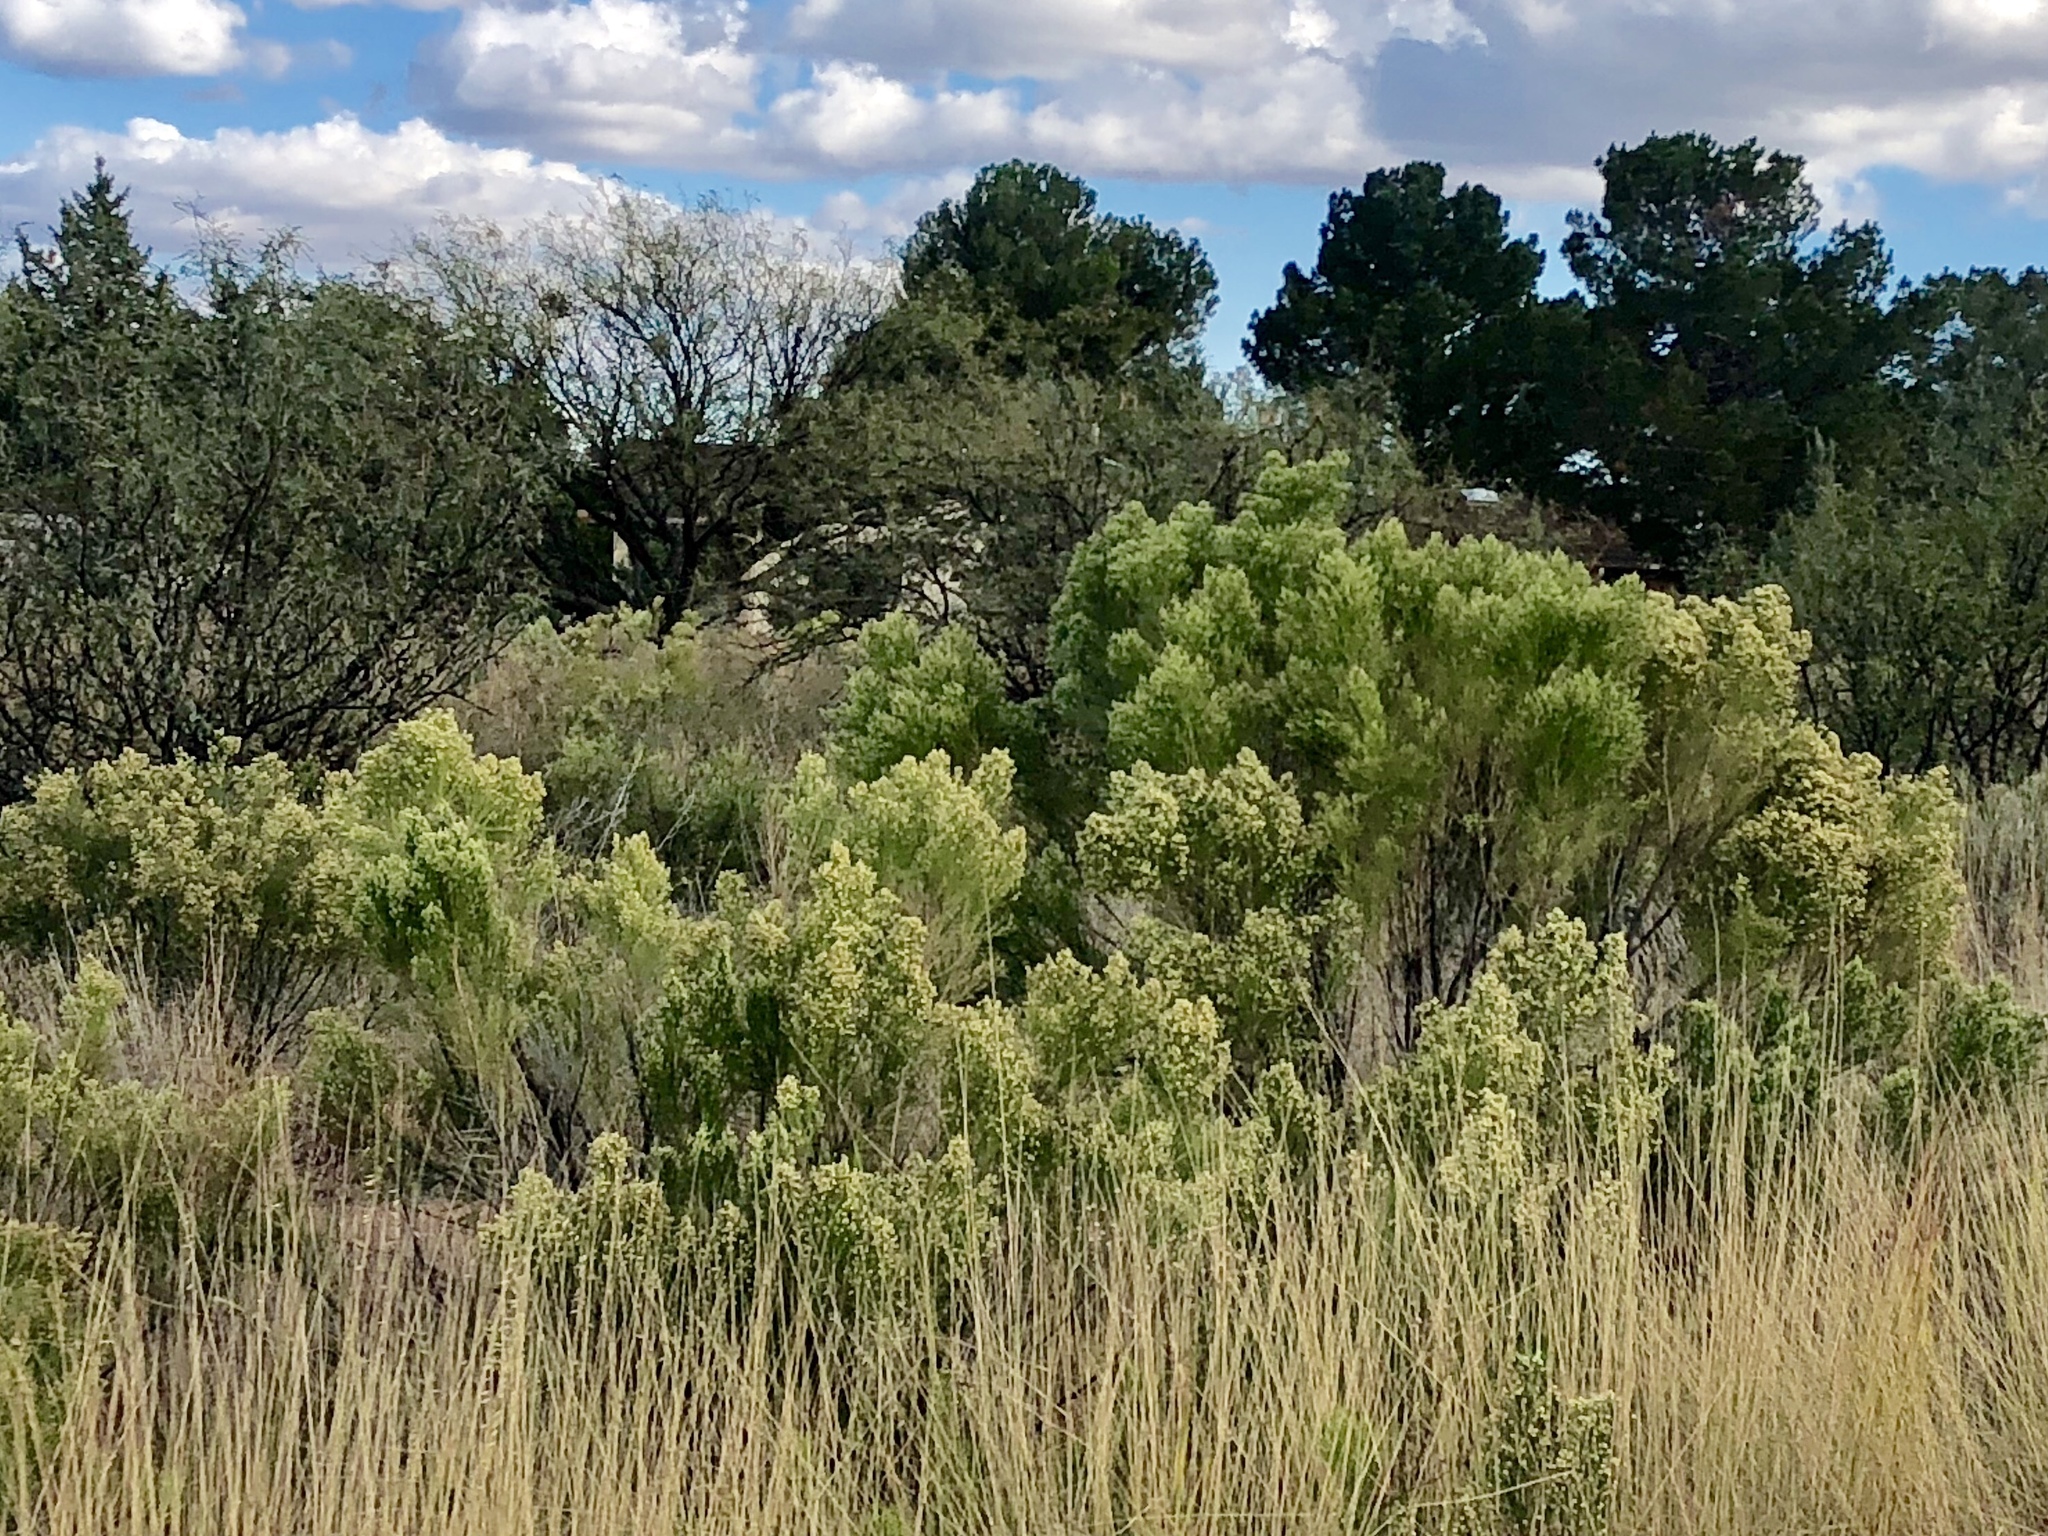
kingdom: Plantae
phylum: Tracheophyta
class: Magnoliopsida
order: Asterales
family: Asteraceae
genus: Baccharis
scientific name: Baccharis sarothroides
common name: Desert-broom
